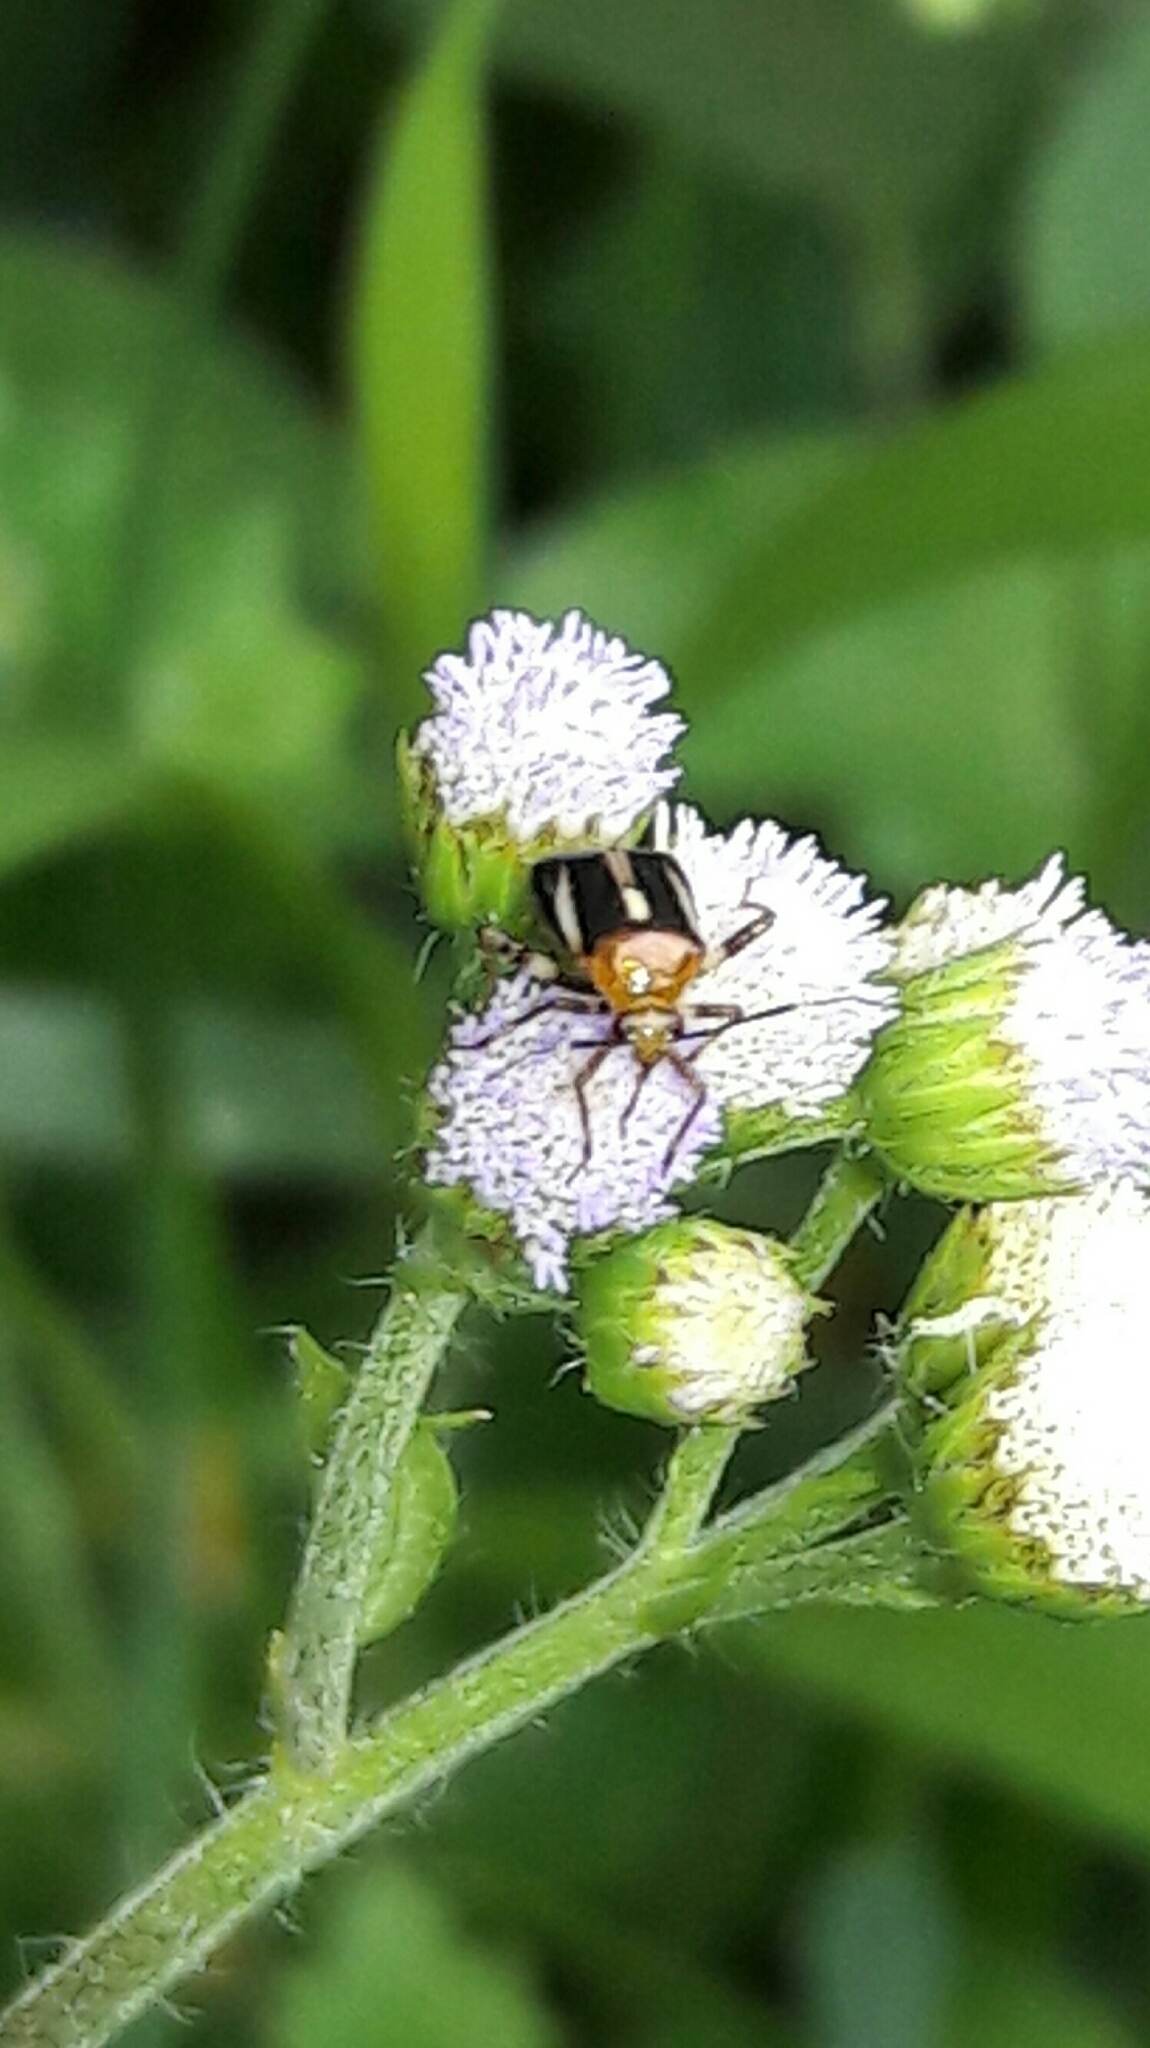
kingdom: Animalia
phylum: Arthropoda
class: Insecta
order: Hemiptera
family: Miridae
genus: Horciasinus
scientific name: Horciasinus signoreti
